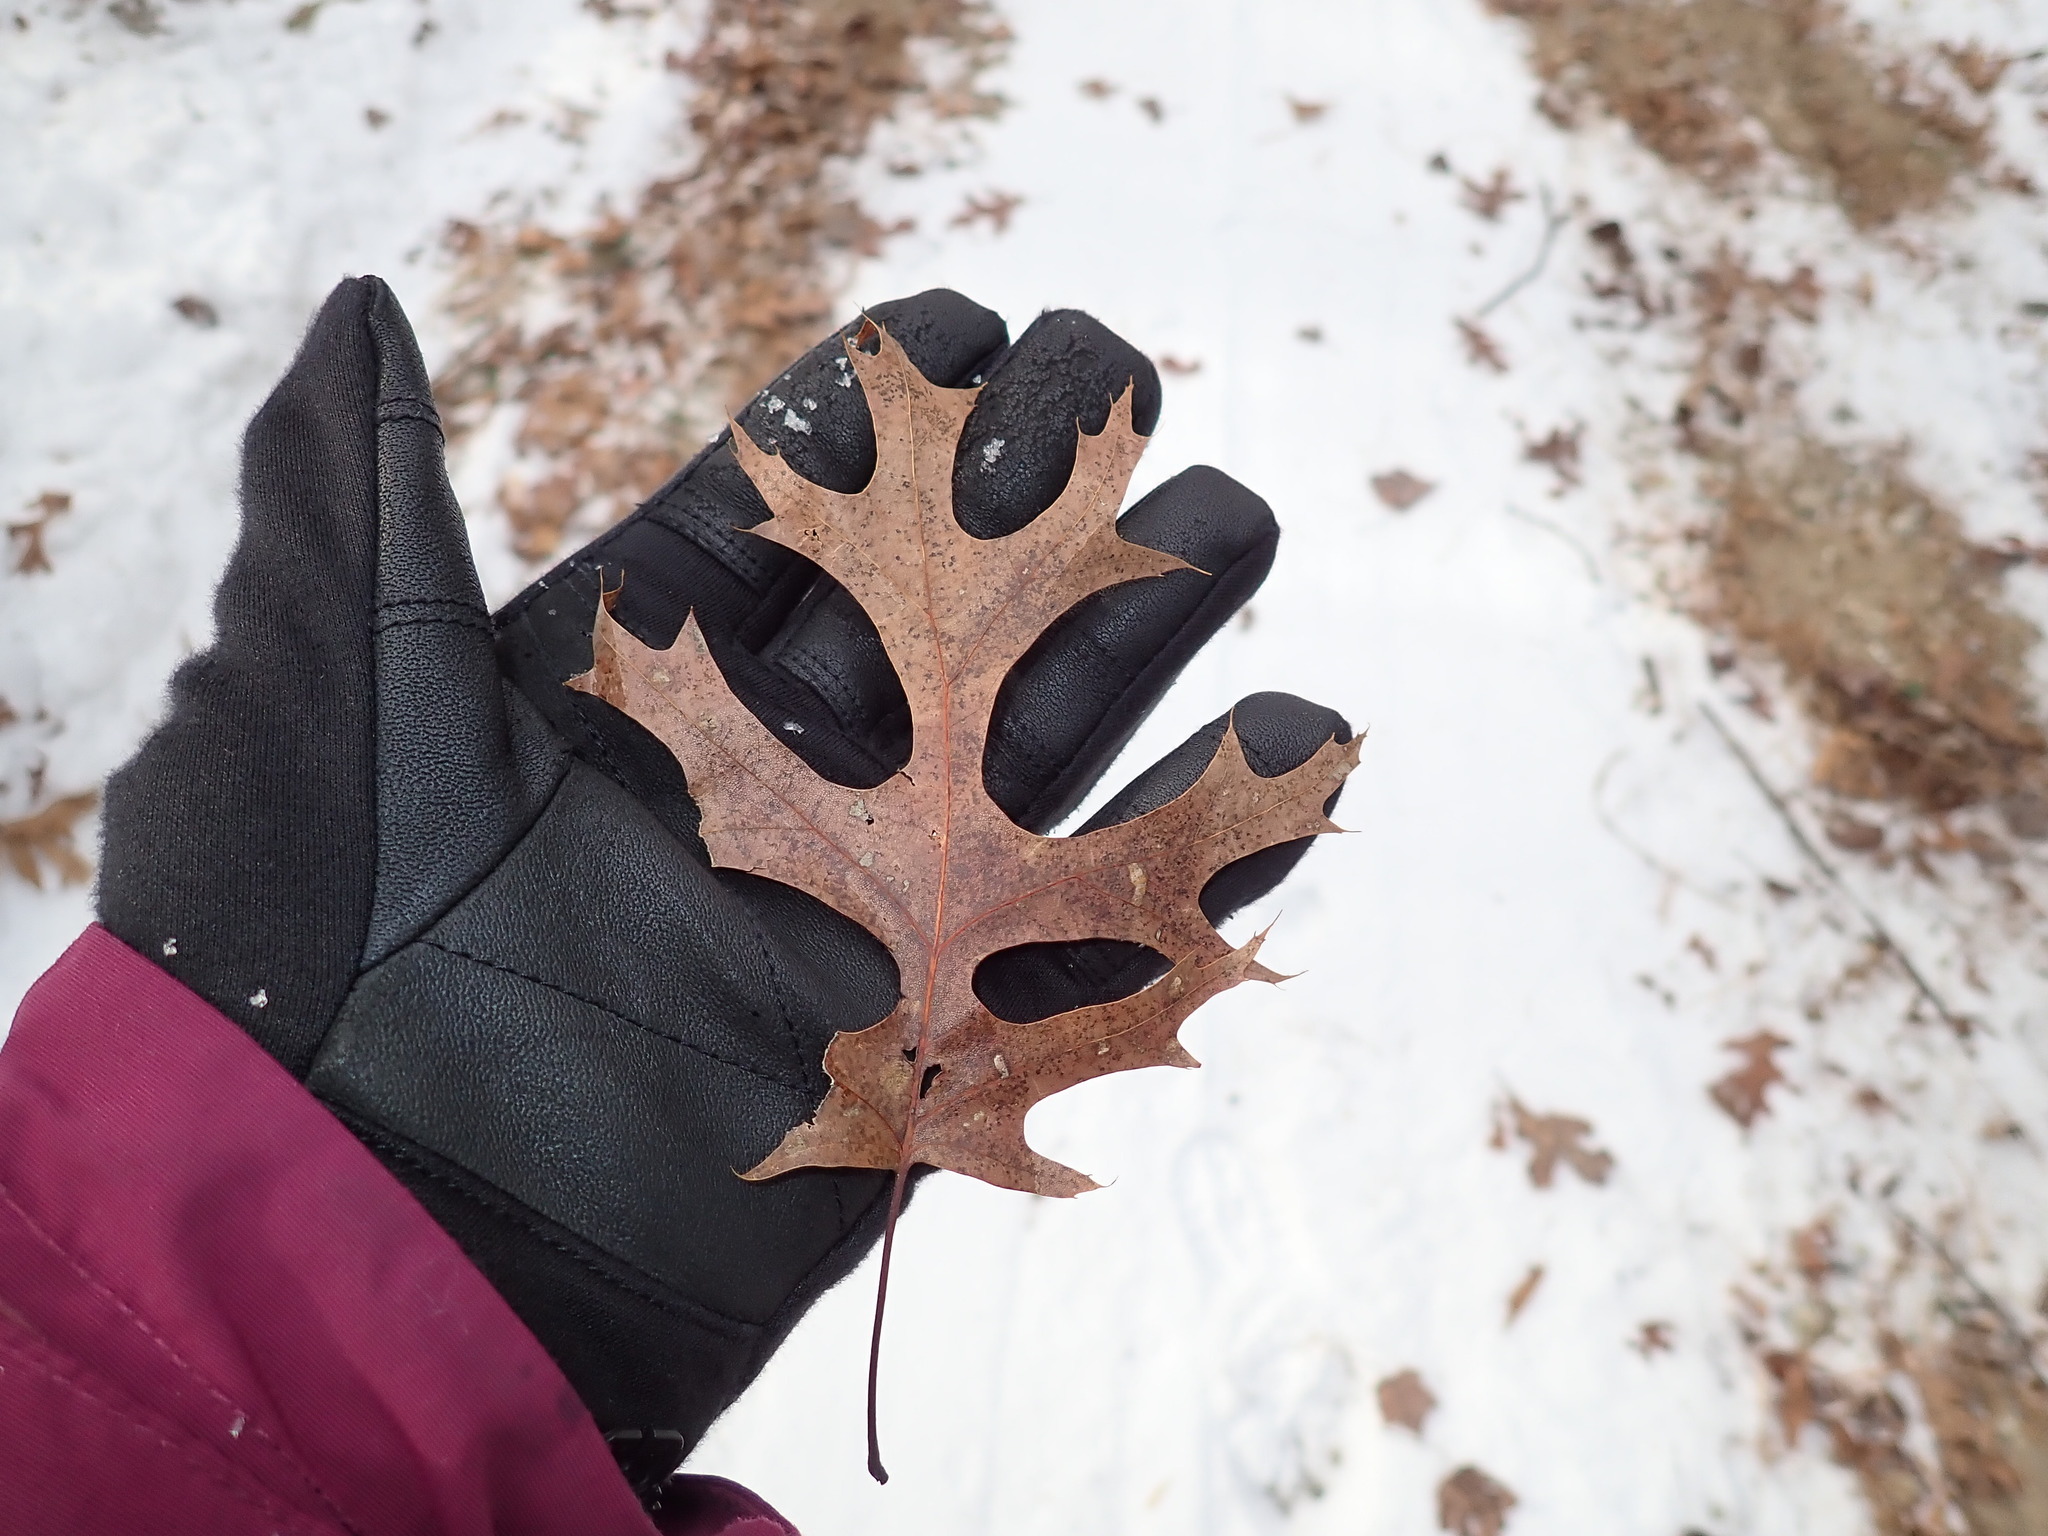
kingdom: Plantae
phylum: Tracheophyta
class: Magnoliopsida
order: Fagales
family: Fagaceae
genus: Quercus
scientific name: Quercus coccinea
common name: Scarlet oak
